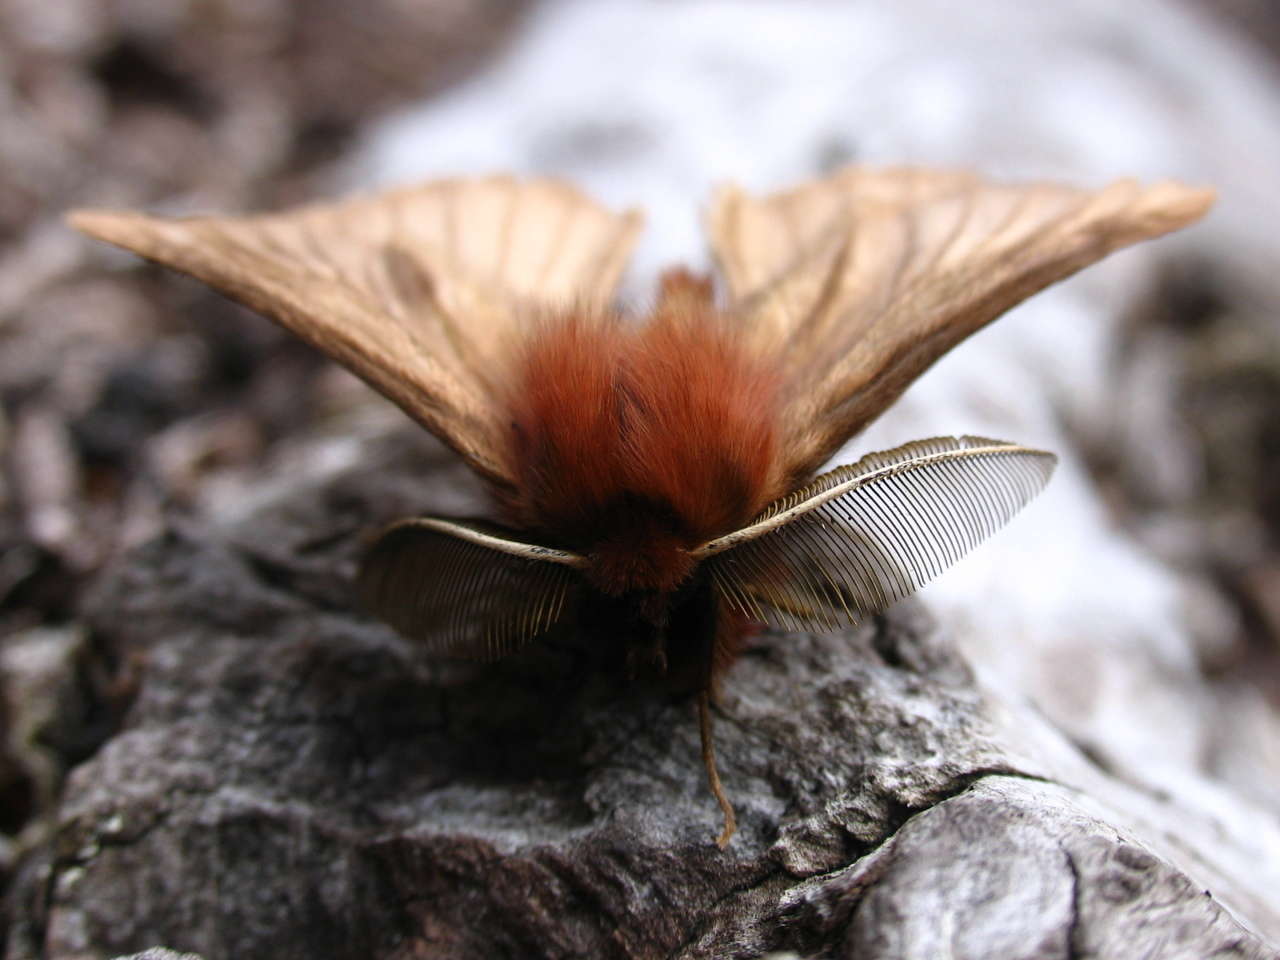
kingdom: Animalia
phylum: Arthropoda
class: Insecta
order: Lepidoptera
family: Anthelidae
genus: Pterolocera
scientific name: Pterolocera
